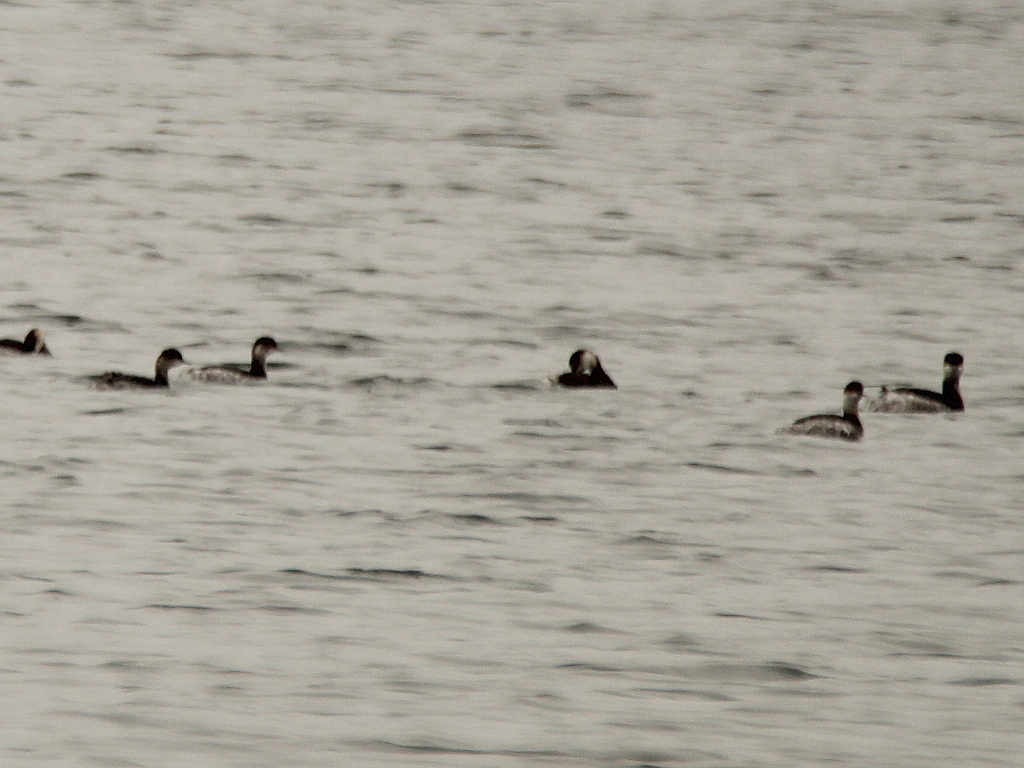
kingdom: Animalia
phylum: Chordata
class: Aves
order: Podicipediformes
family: Podicipedidae
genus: Podiceps
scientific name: Podiceps nigricollis
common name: Black-necked grebe
